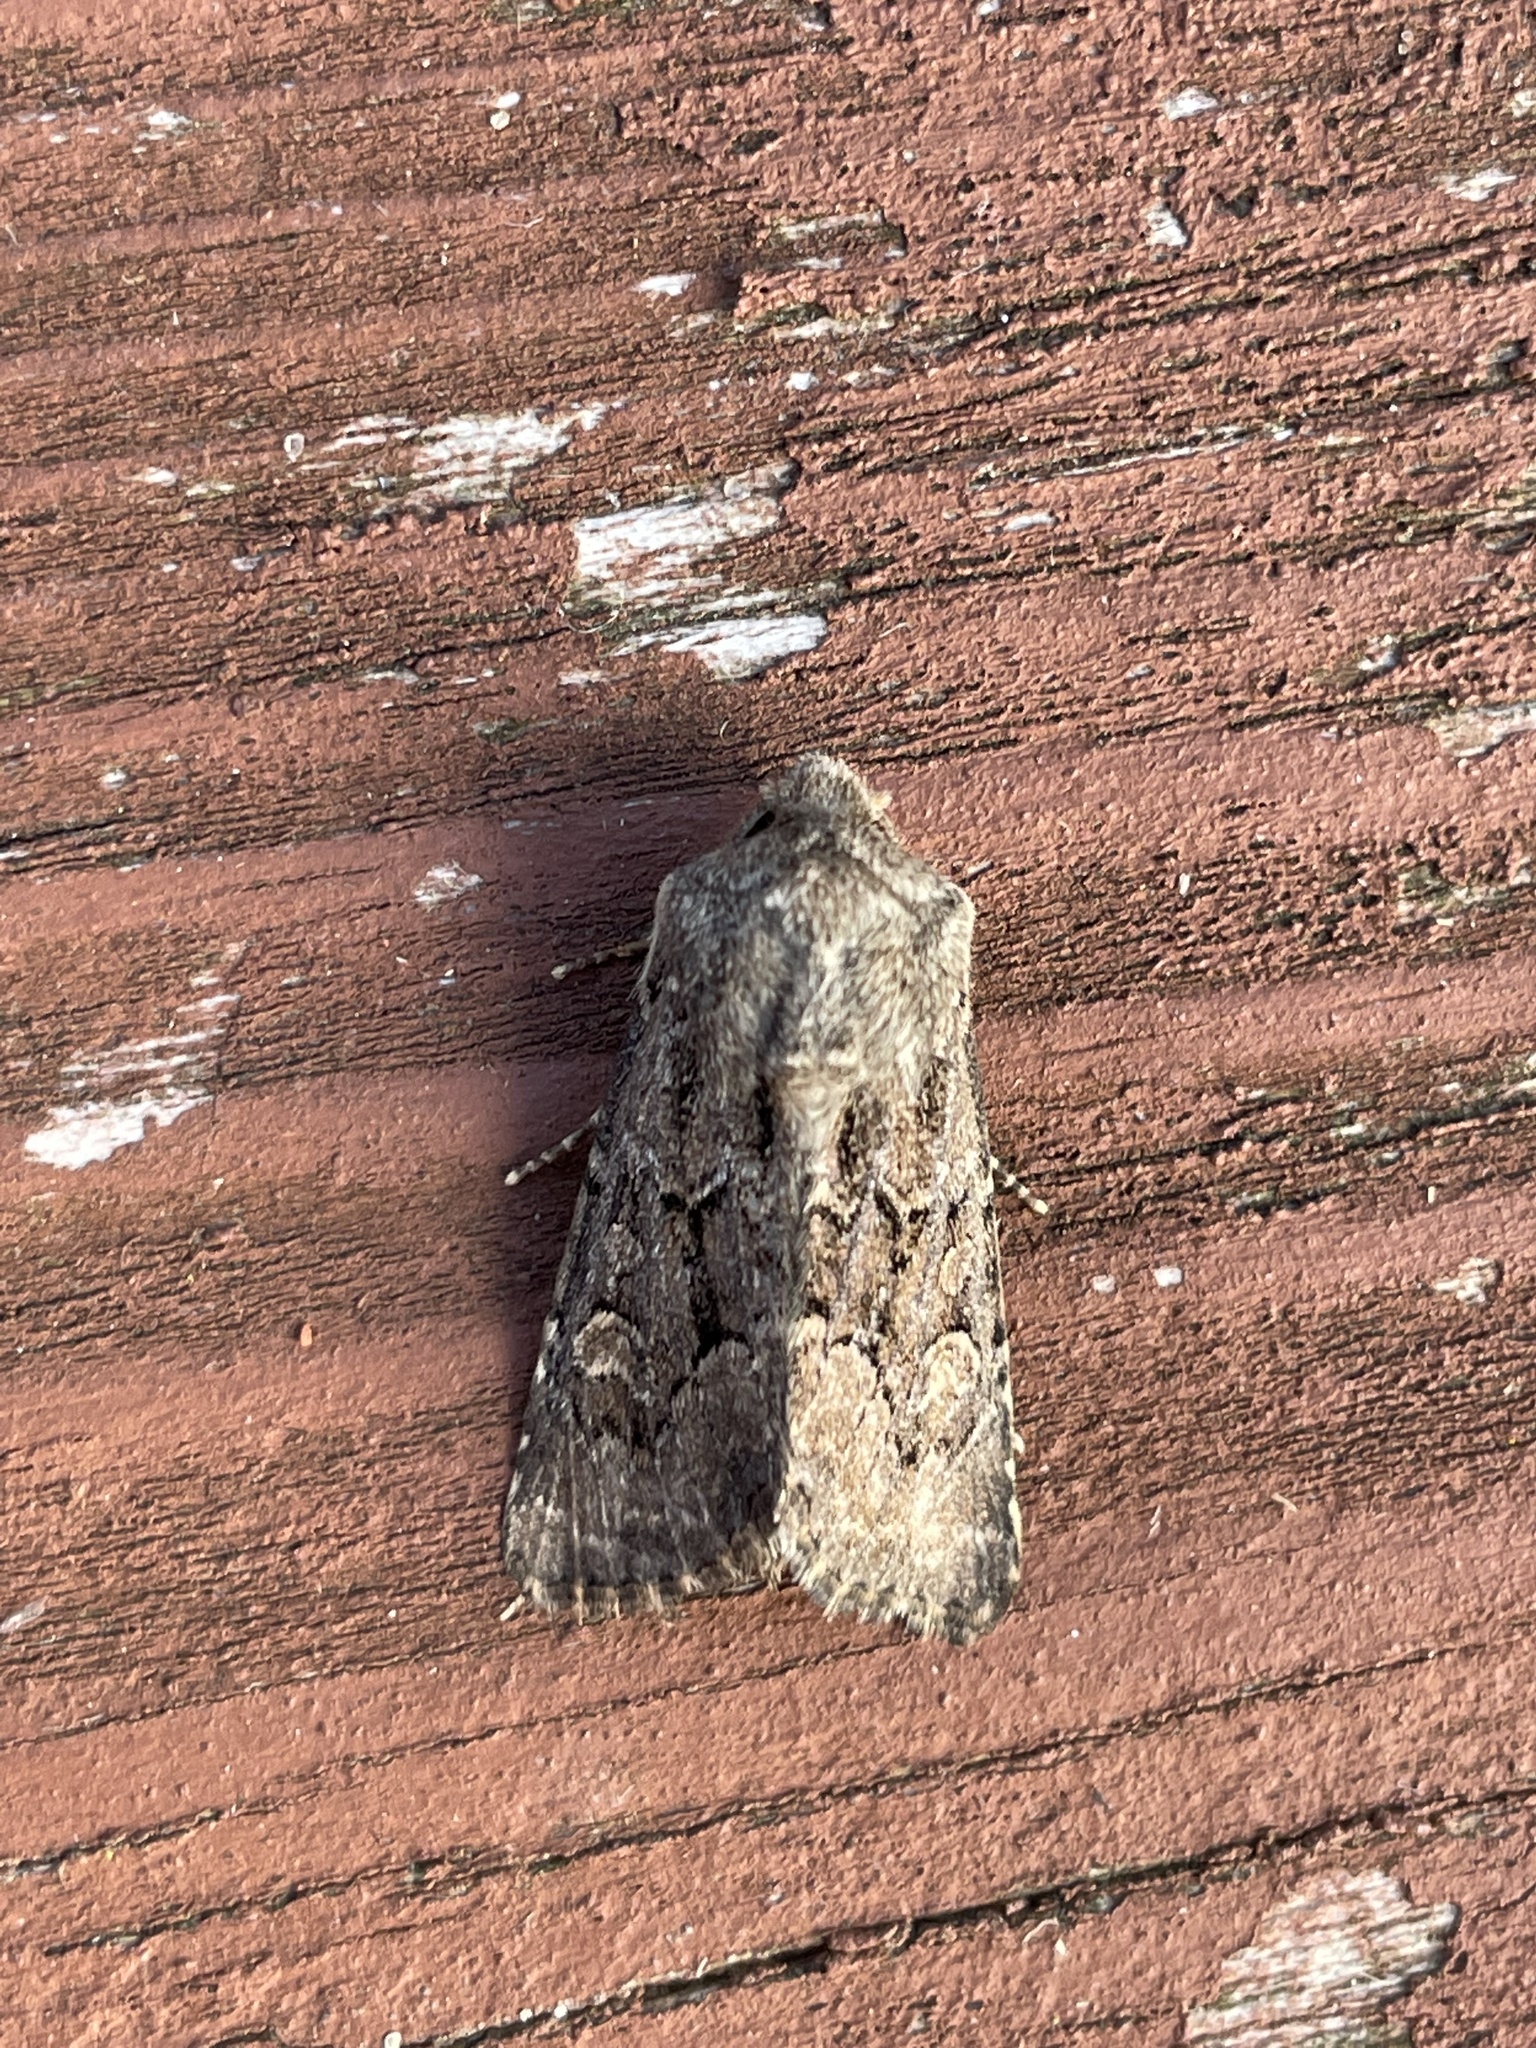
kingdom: Animalia
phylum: Arthropoda
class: Insecta
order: Lepidoptera
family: Noctuidae
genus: Luperina
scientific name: Luperina testacea
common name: Flounced rustic
